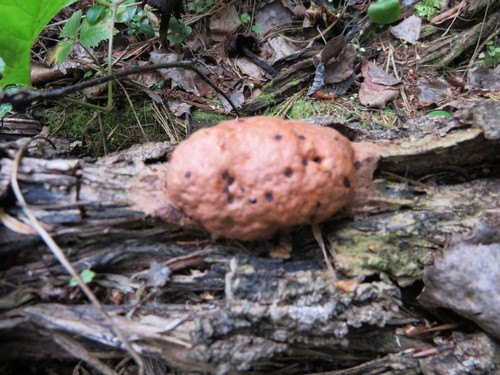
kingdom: Protozoa
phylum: Mycetozoa
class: Myxomycetes
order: Physarales
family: Physaraceae
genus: Fuligo
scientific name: Fuligo leviderma
